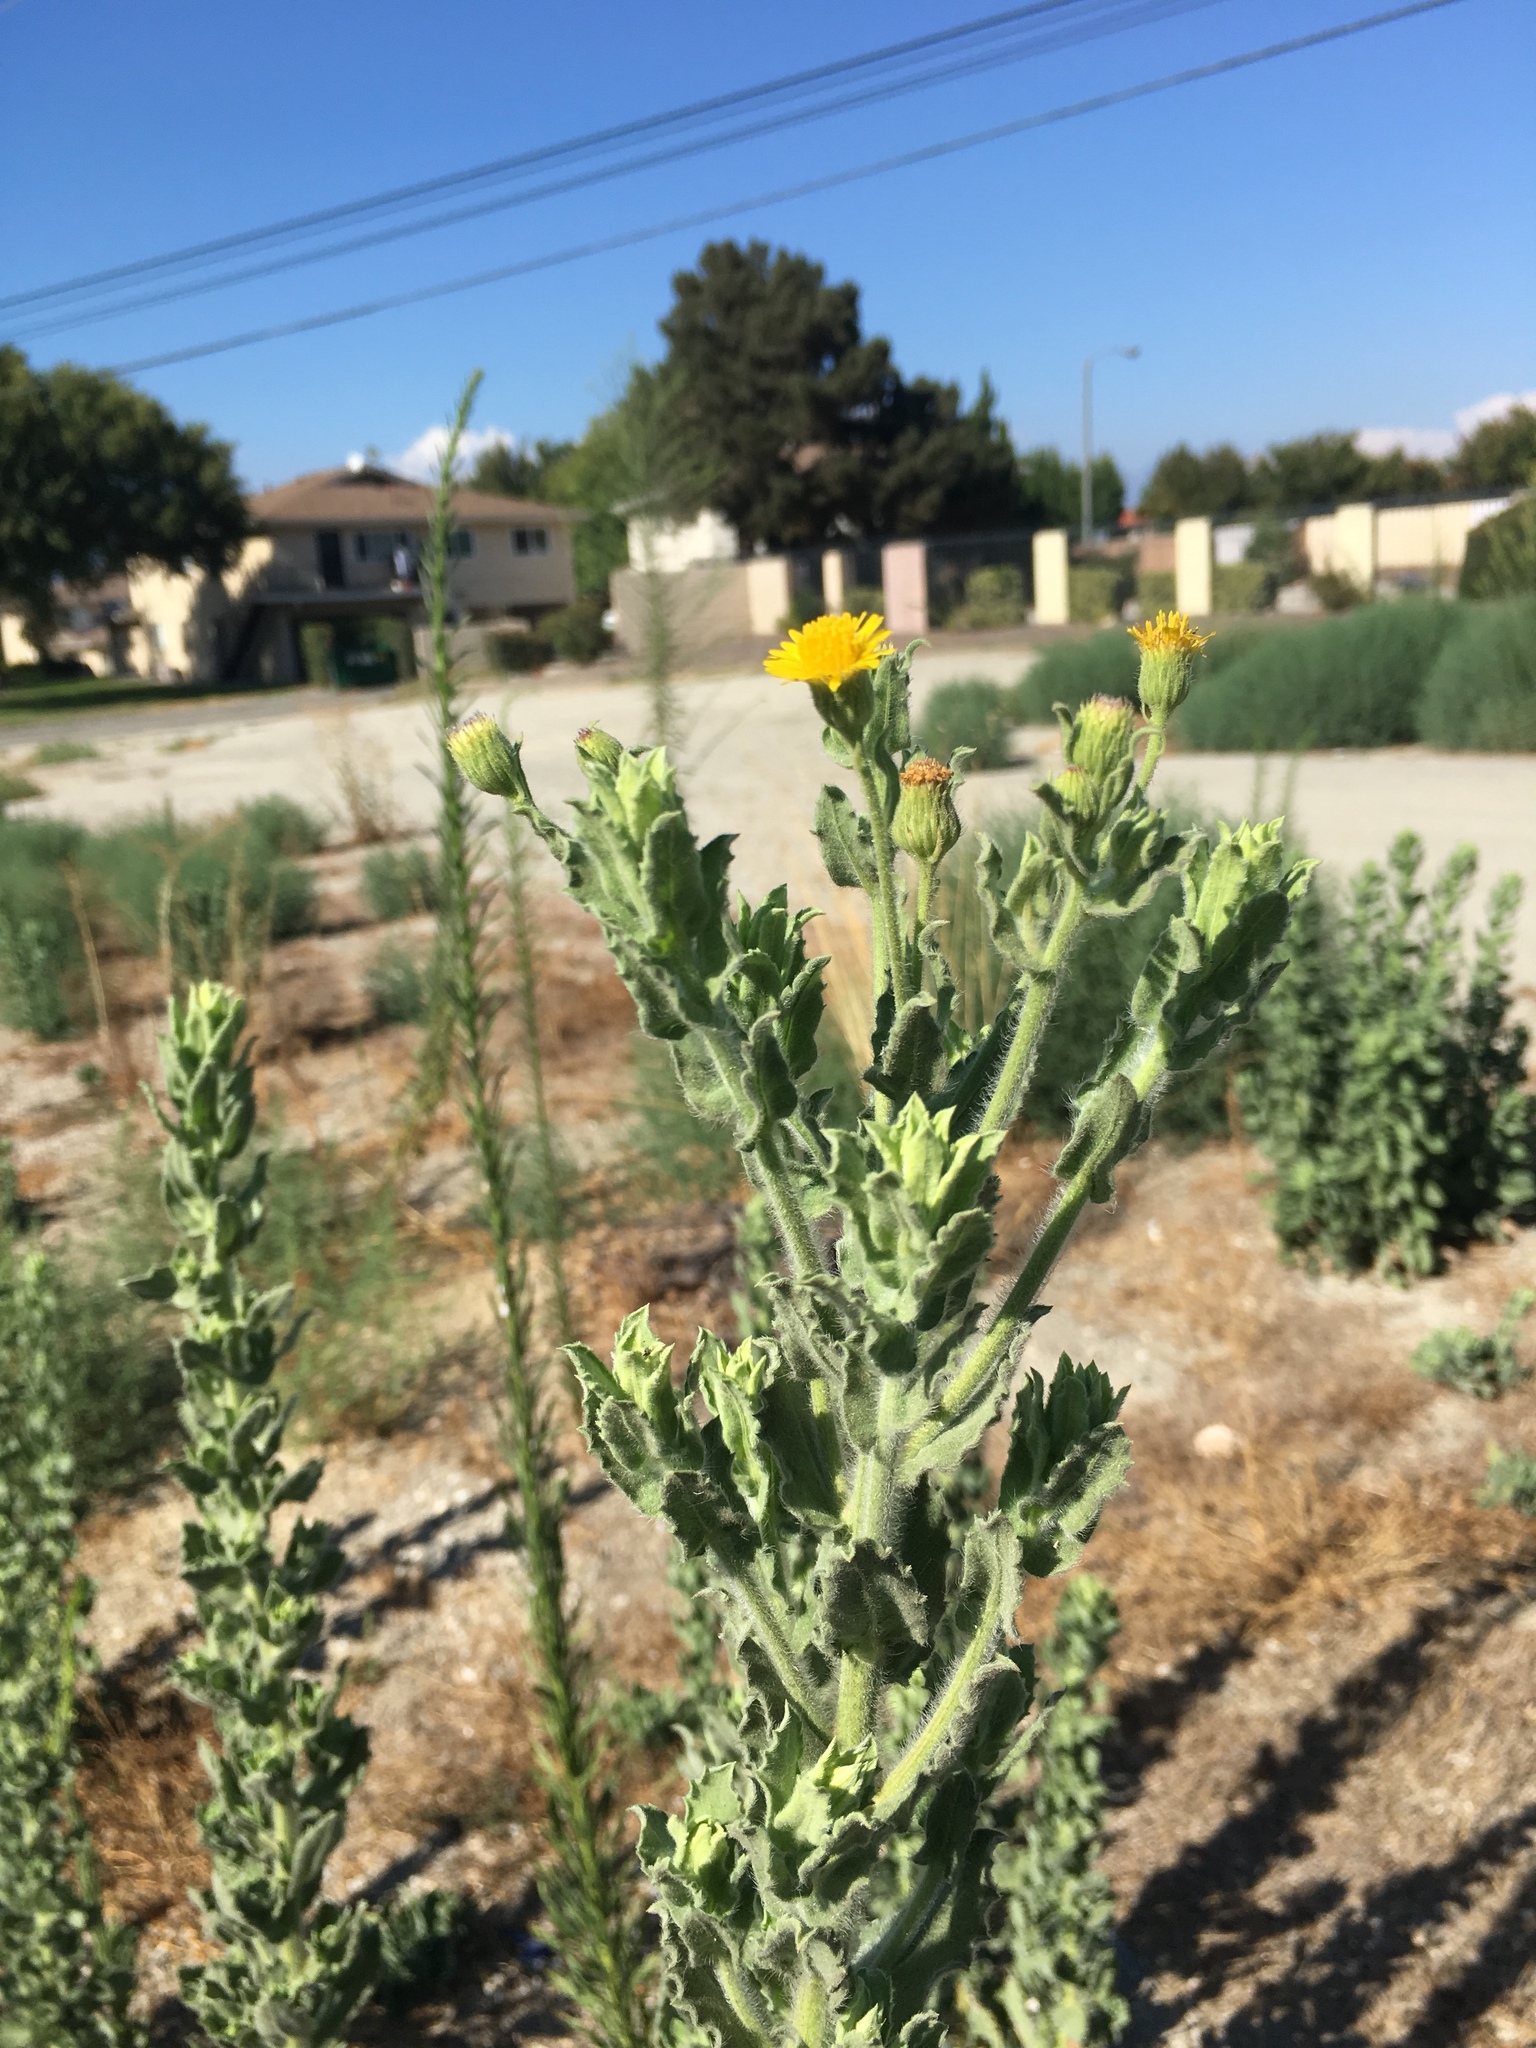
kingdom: Plantae
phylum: Tracheophyta
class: Magnoliopsida
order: Asterales
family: Asteraceae
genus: Heterotheca
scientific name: Heterotheca grandiflora
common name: Telegraphweed
